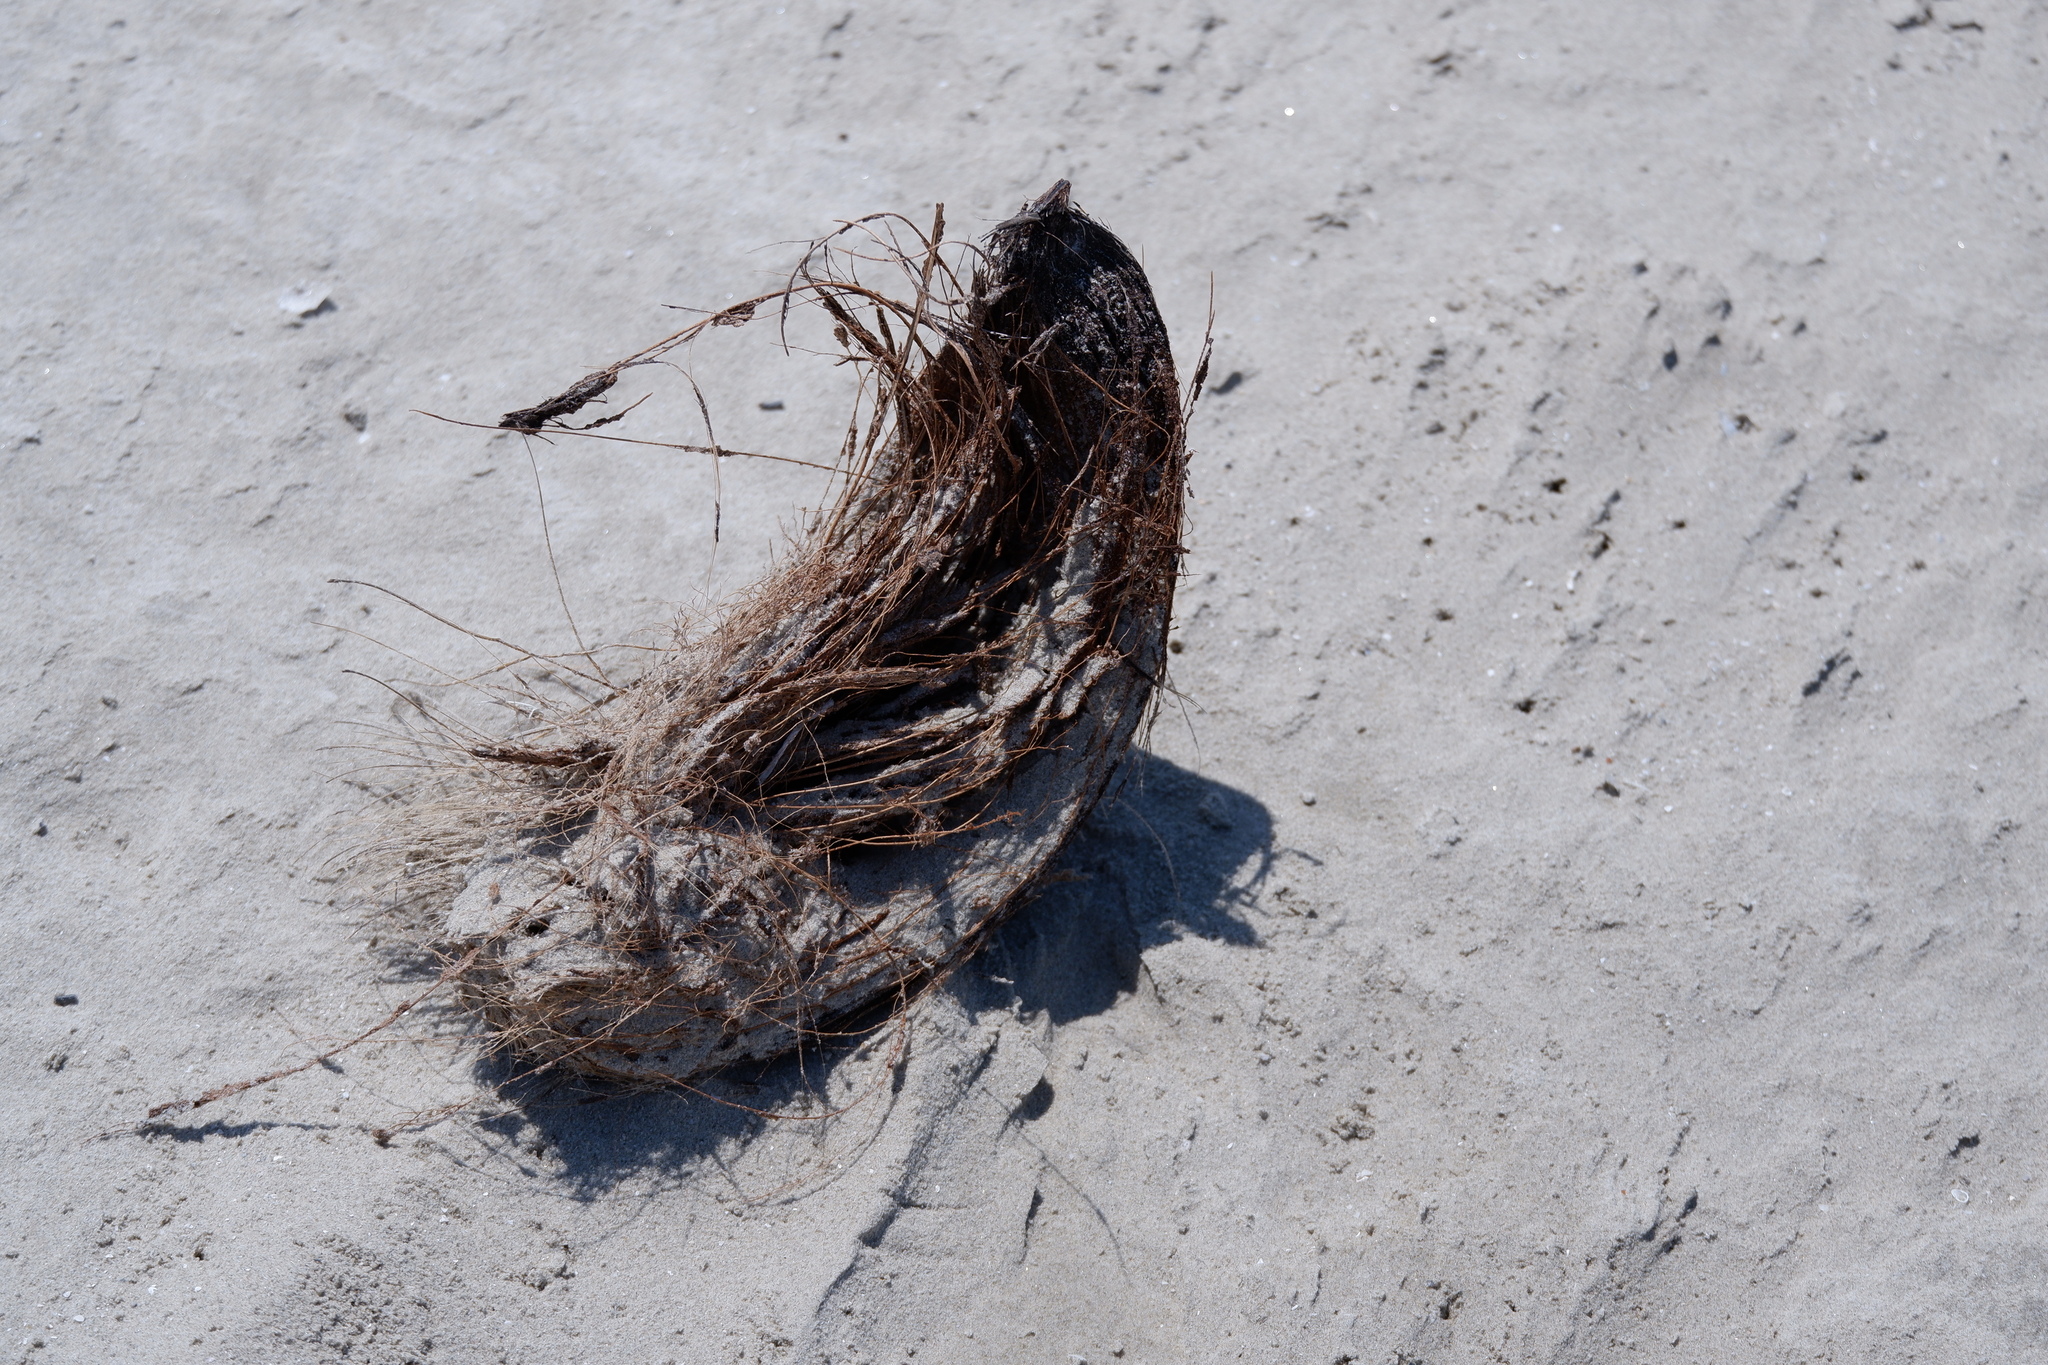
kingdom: Plantae
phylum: Tracheophyta
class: Liliopsida
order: Arecales
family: Arecaceae
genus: Cocos
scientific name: Cocos nucifera
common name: Coconut palm
